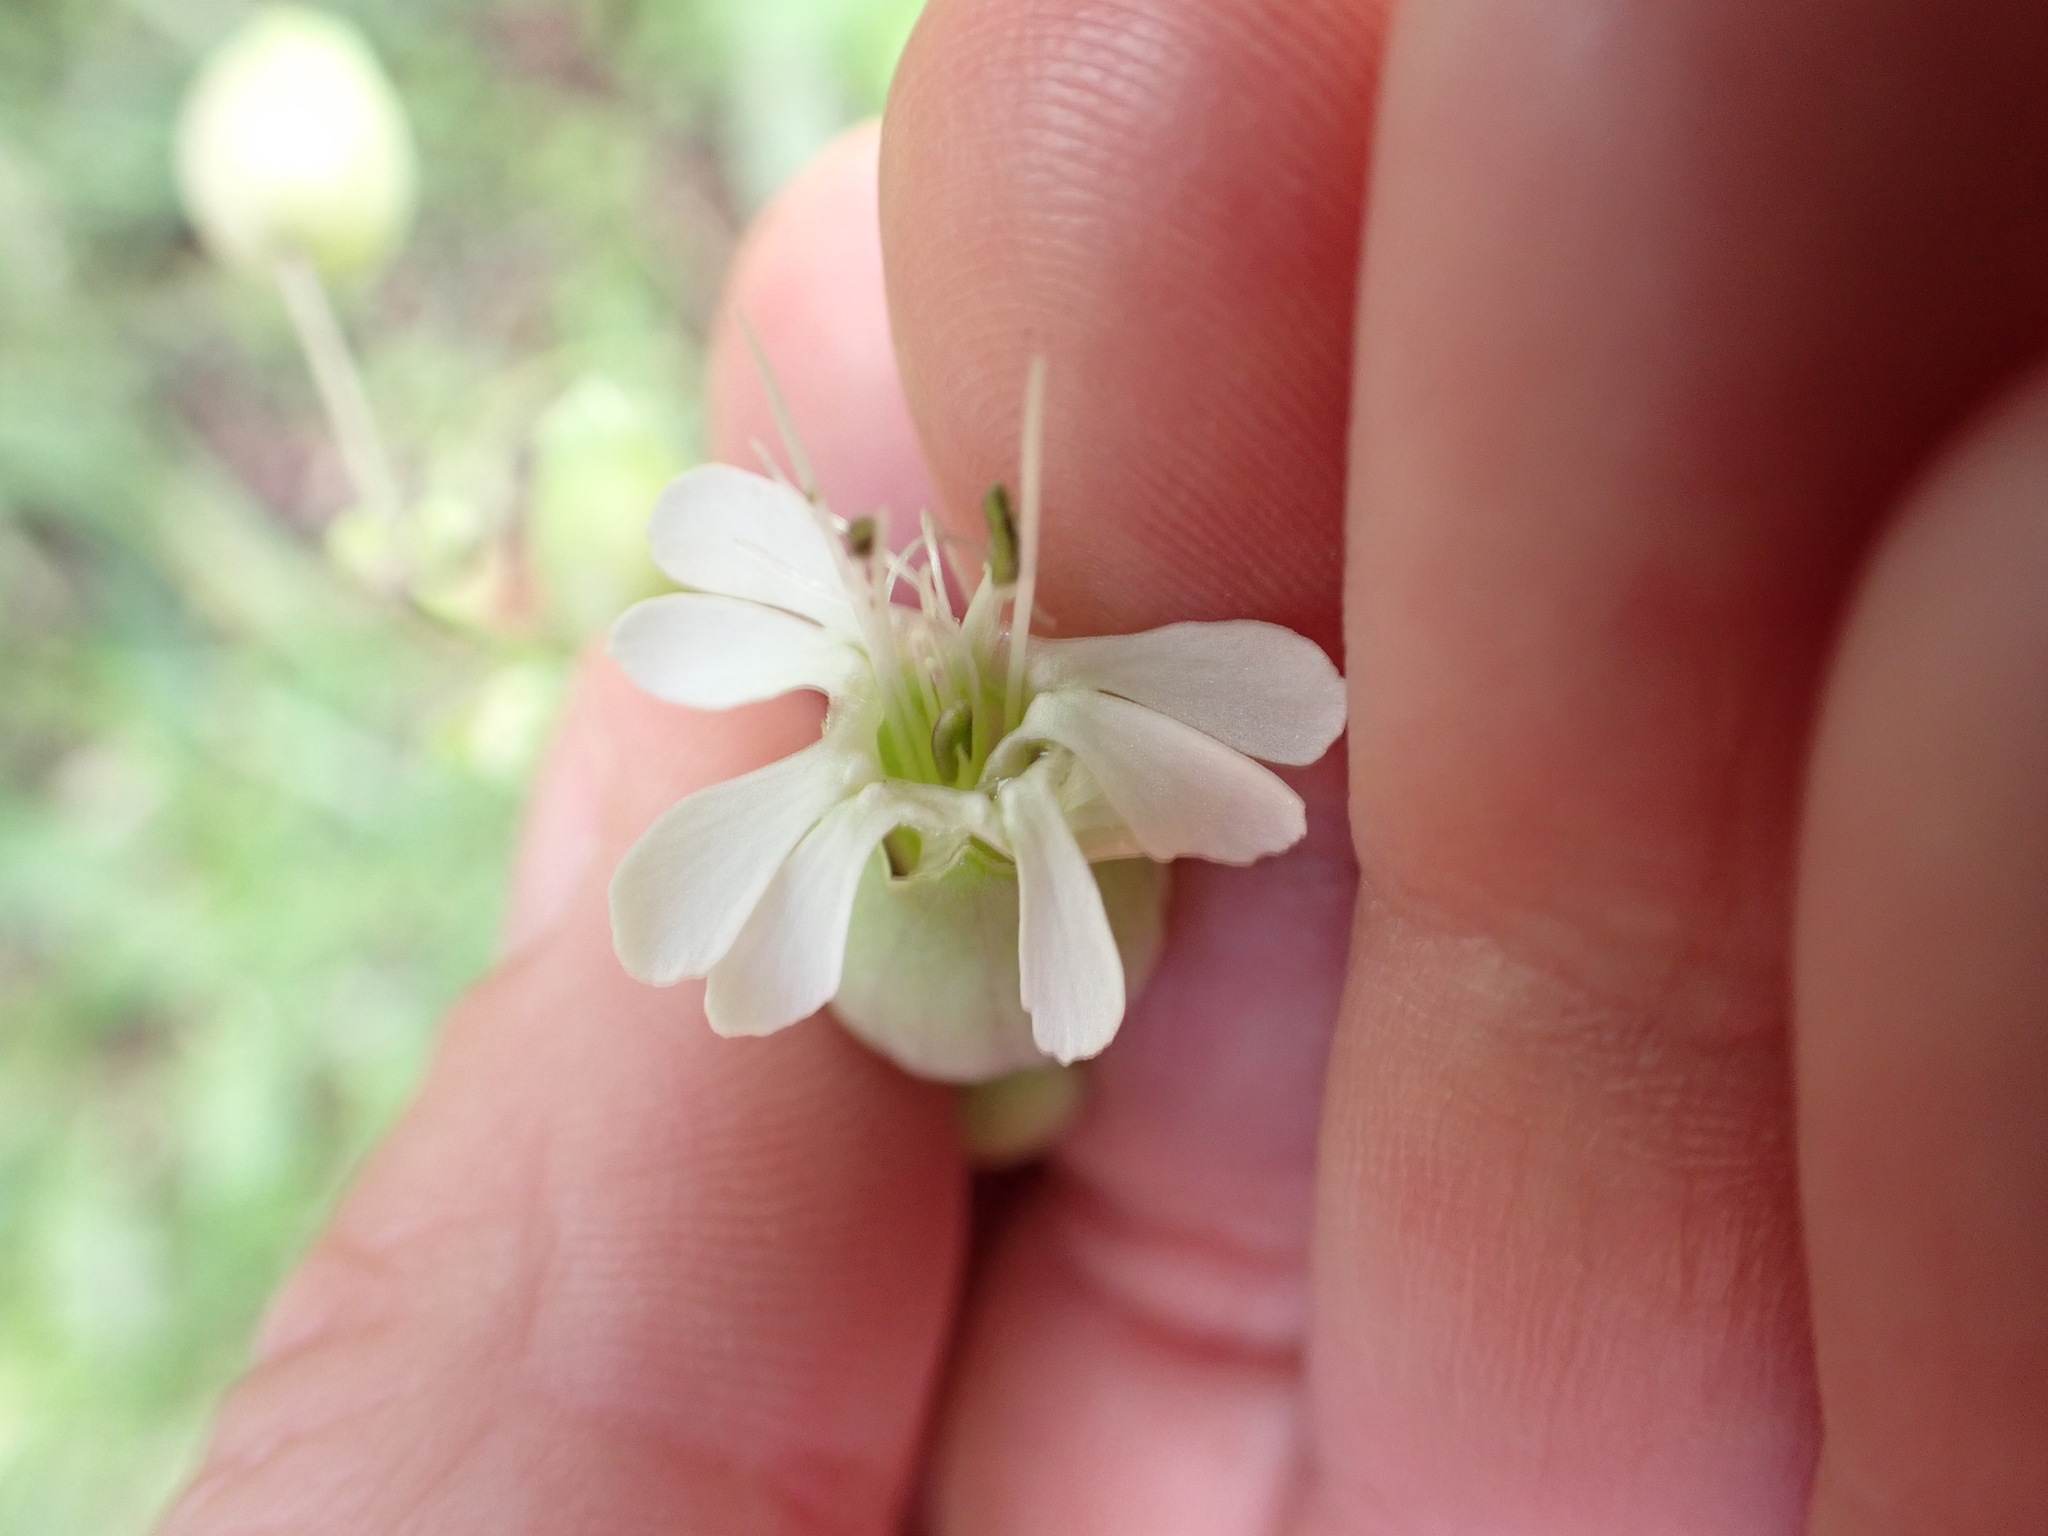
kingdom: Plantae
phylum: Tracheophyta
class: Magnoliopsida
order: Caryophyllales
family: Caryophyllaceae
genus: Silene
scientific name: Silene vulgaris
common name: Bladder campion
